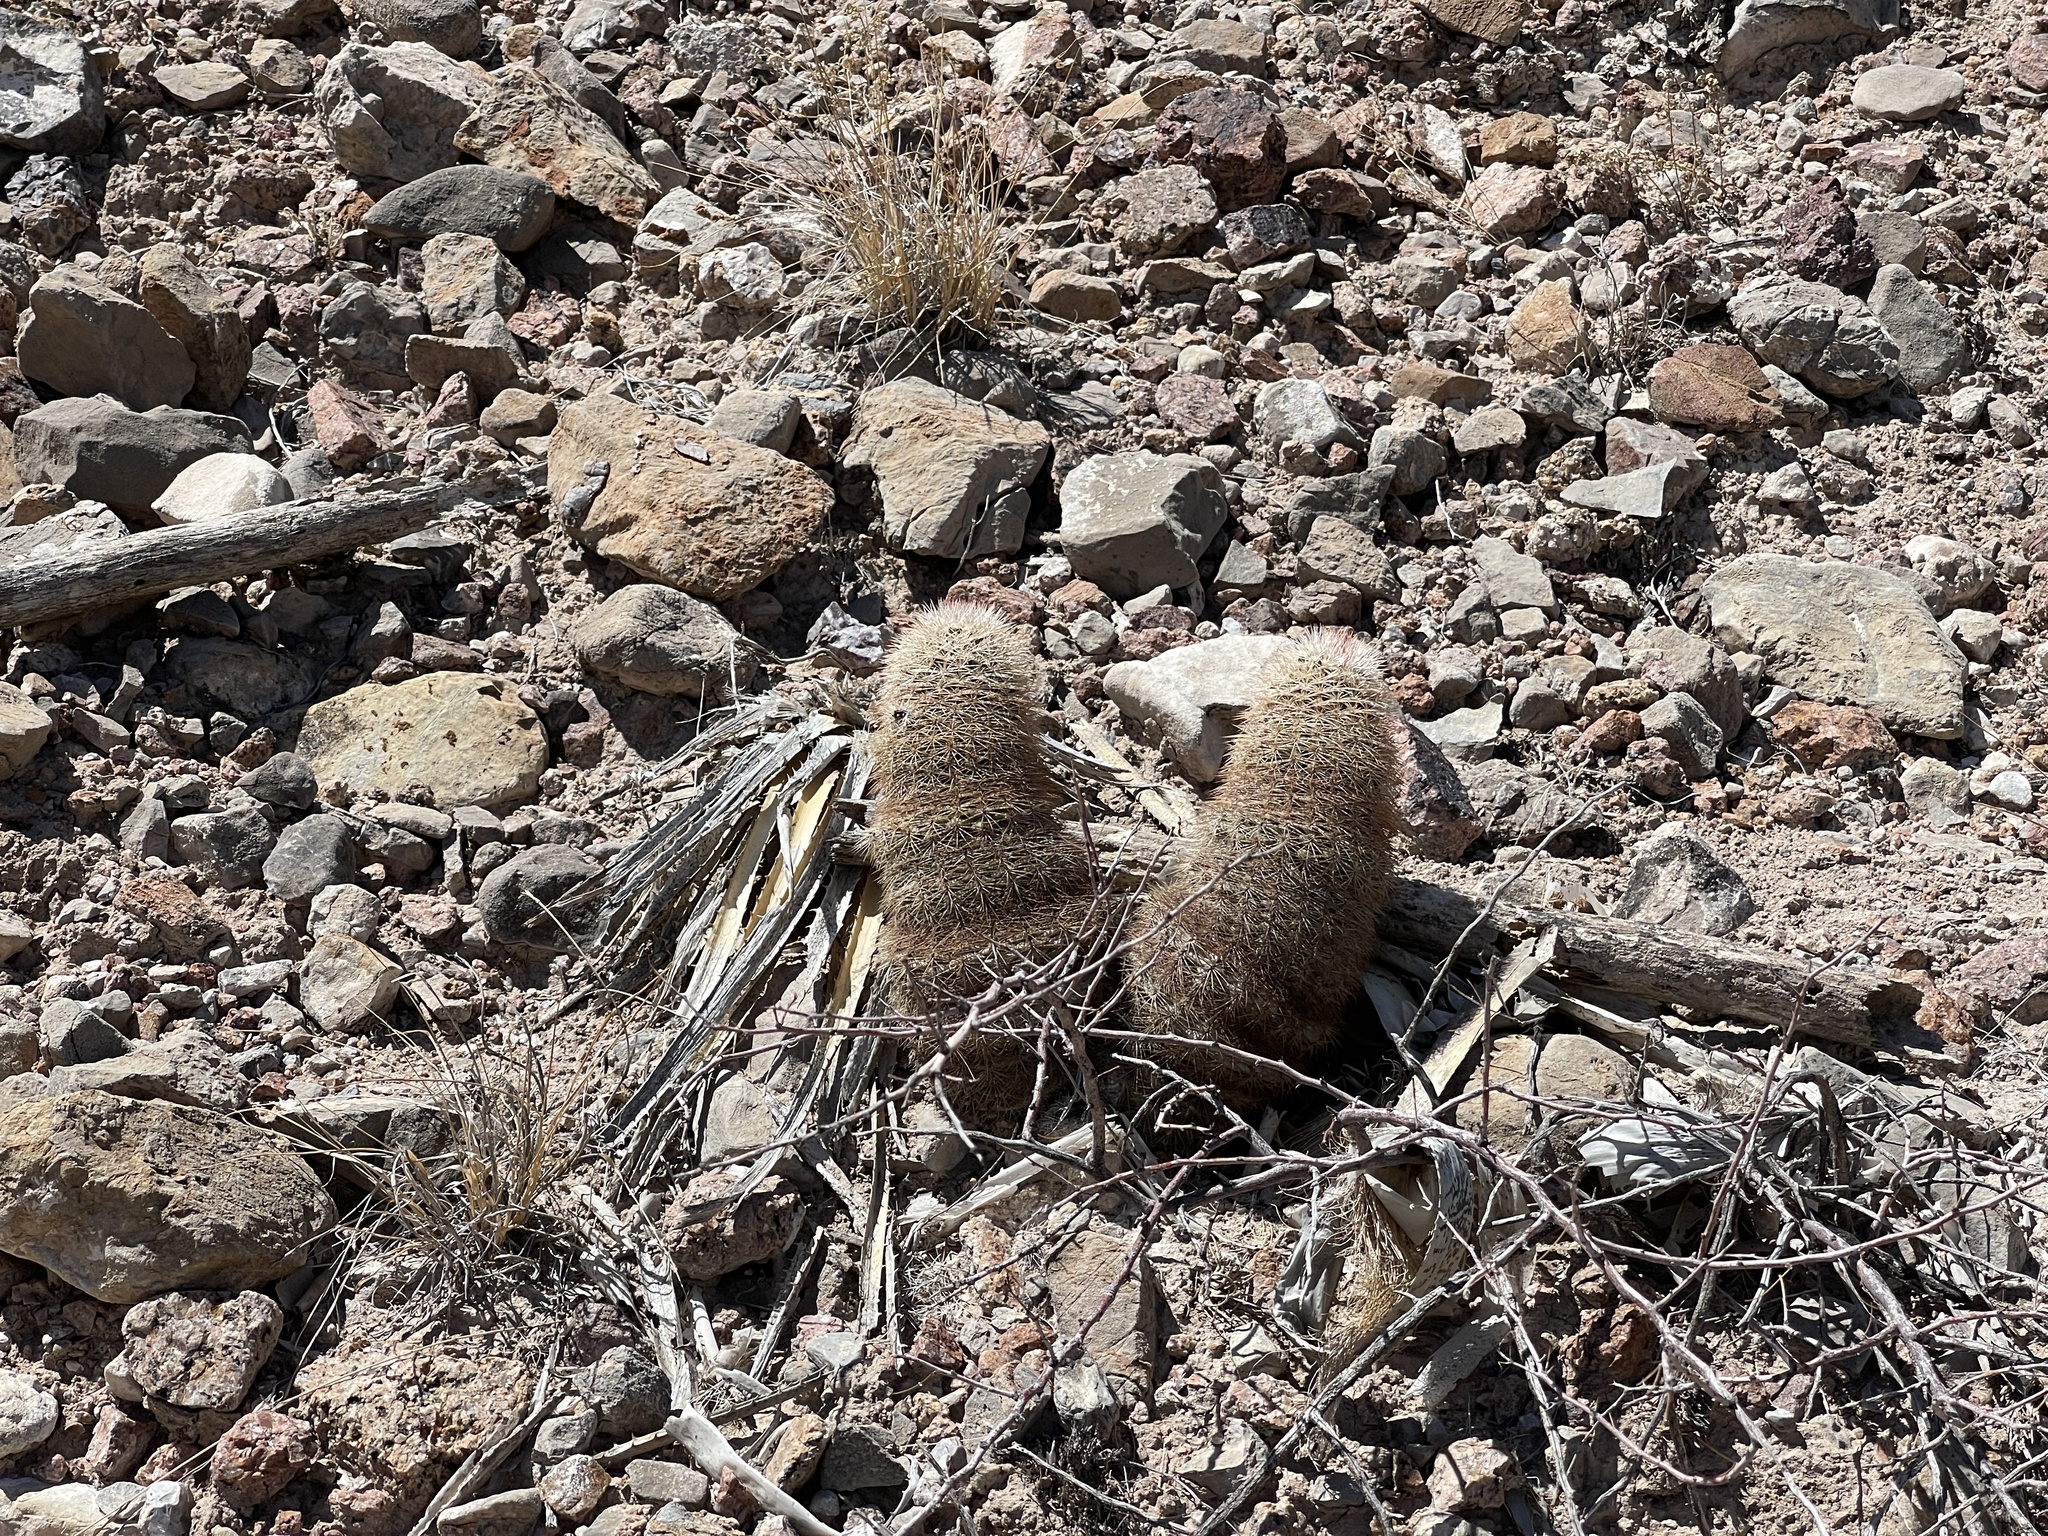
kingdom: Plantae
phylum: Tracheophyta
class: Magnoliopsida
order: Caryophyllales
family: Cactaceae
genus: Echinocereus
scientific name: Echinocereus dasyacanthus
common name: Spiny hedgehog cactus
